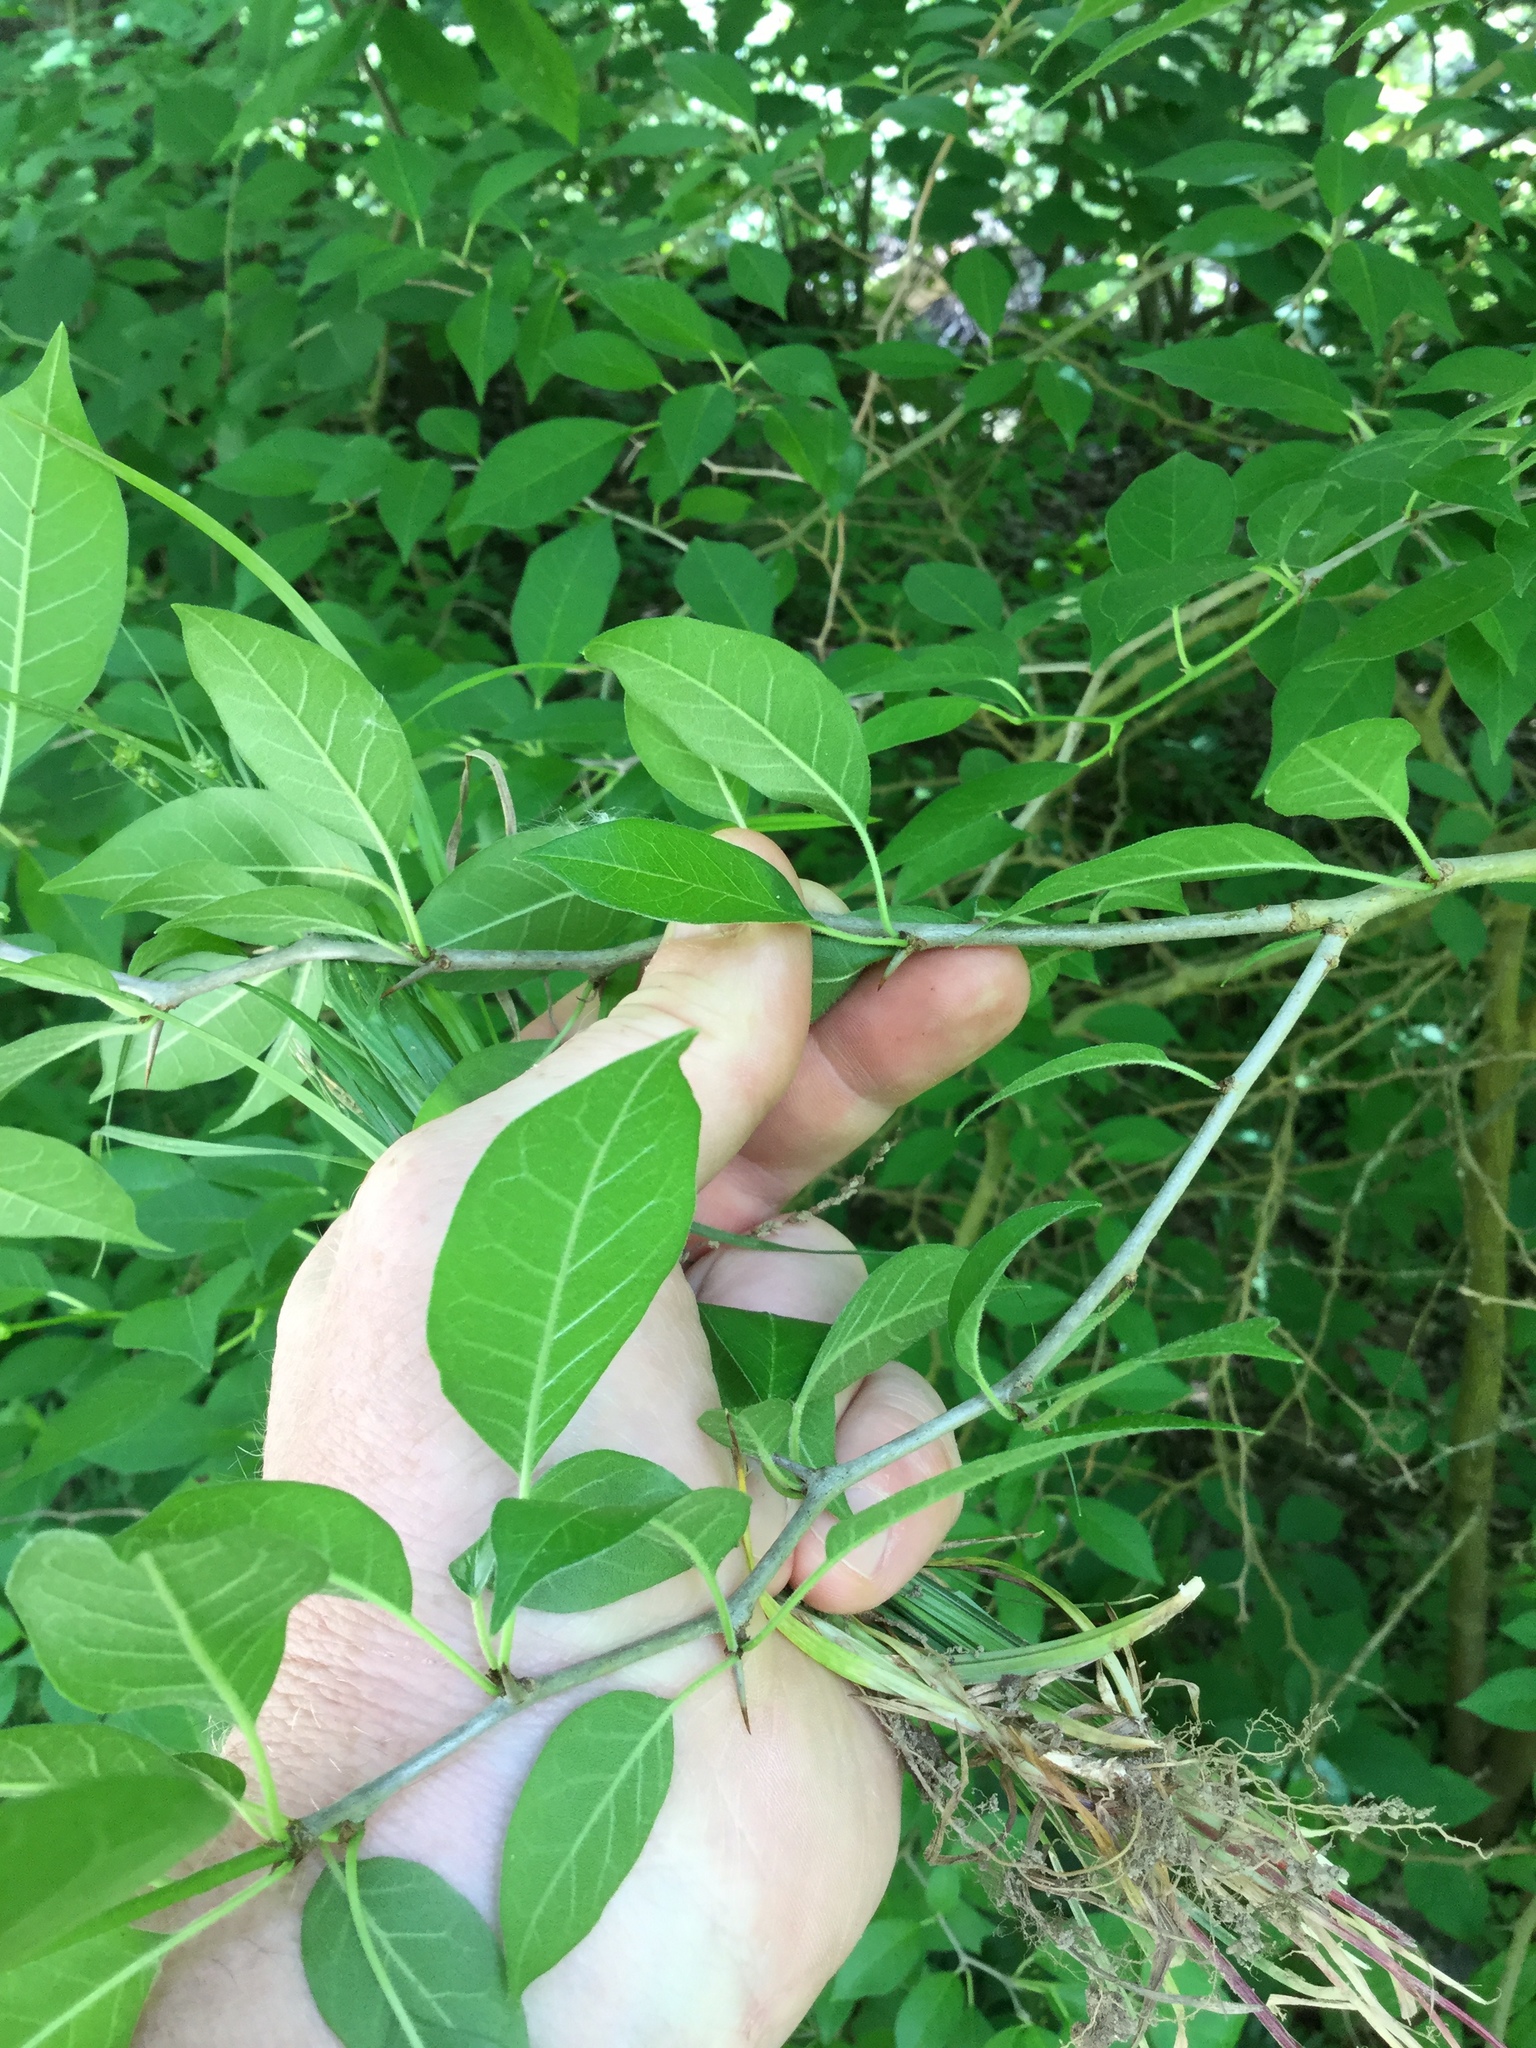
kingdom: Plantae
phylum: Tracheophyta
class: Magnoliopsida
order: Rosales
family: Moraceae
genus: Maclura
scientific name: Maclura pomifera
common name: Osage-orange
